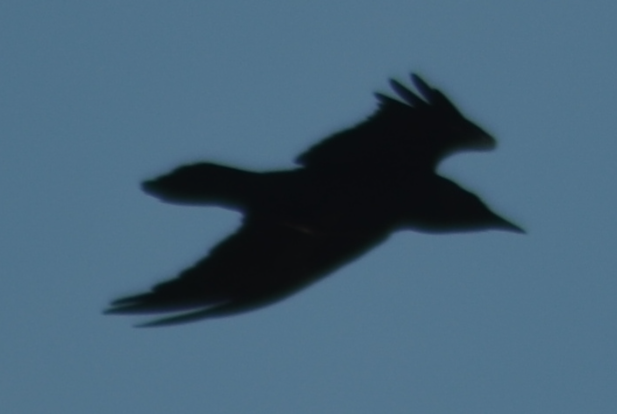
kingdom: Animalia
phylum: Chordata
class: Aves
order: Passeriformes
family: Corvidae
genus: Corvus
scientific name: Corvus corax
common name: Common raven
